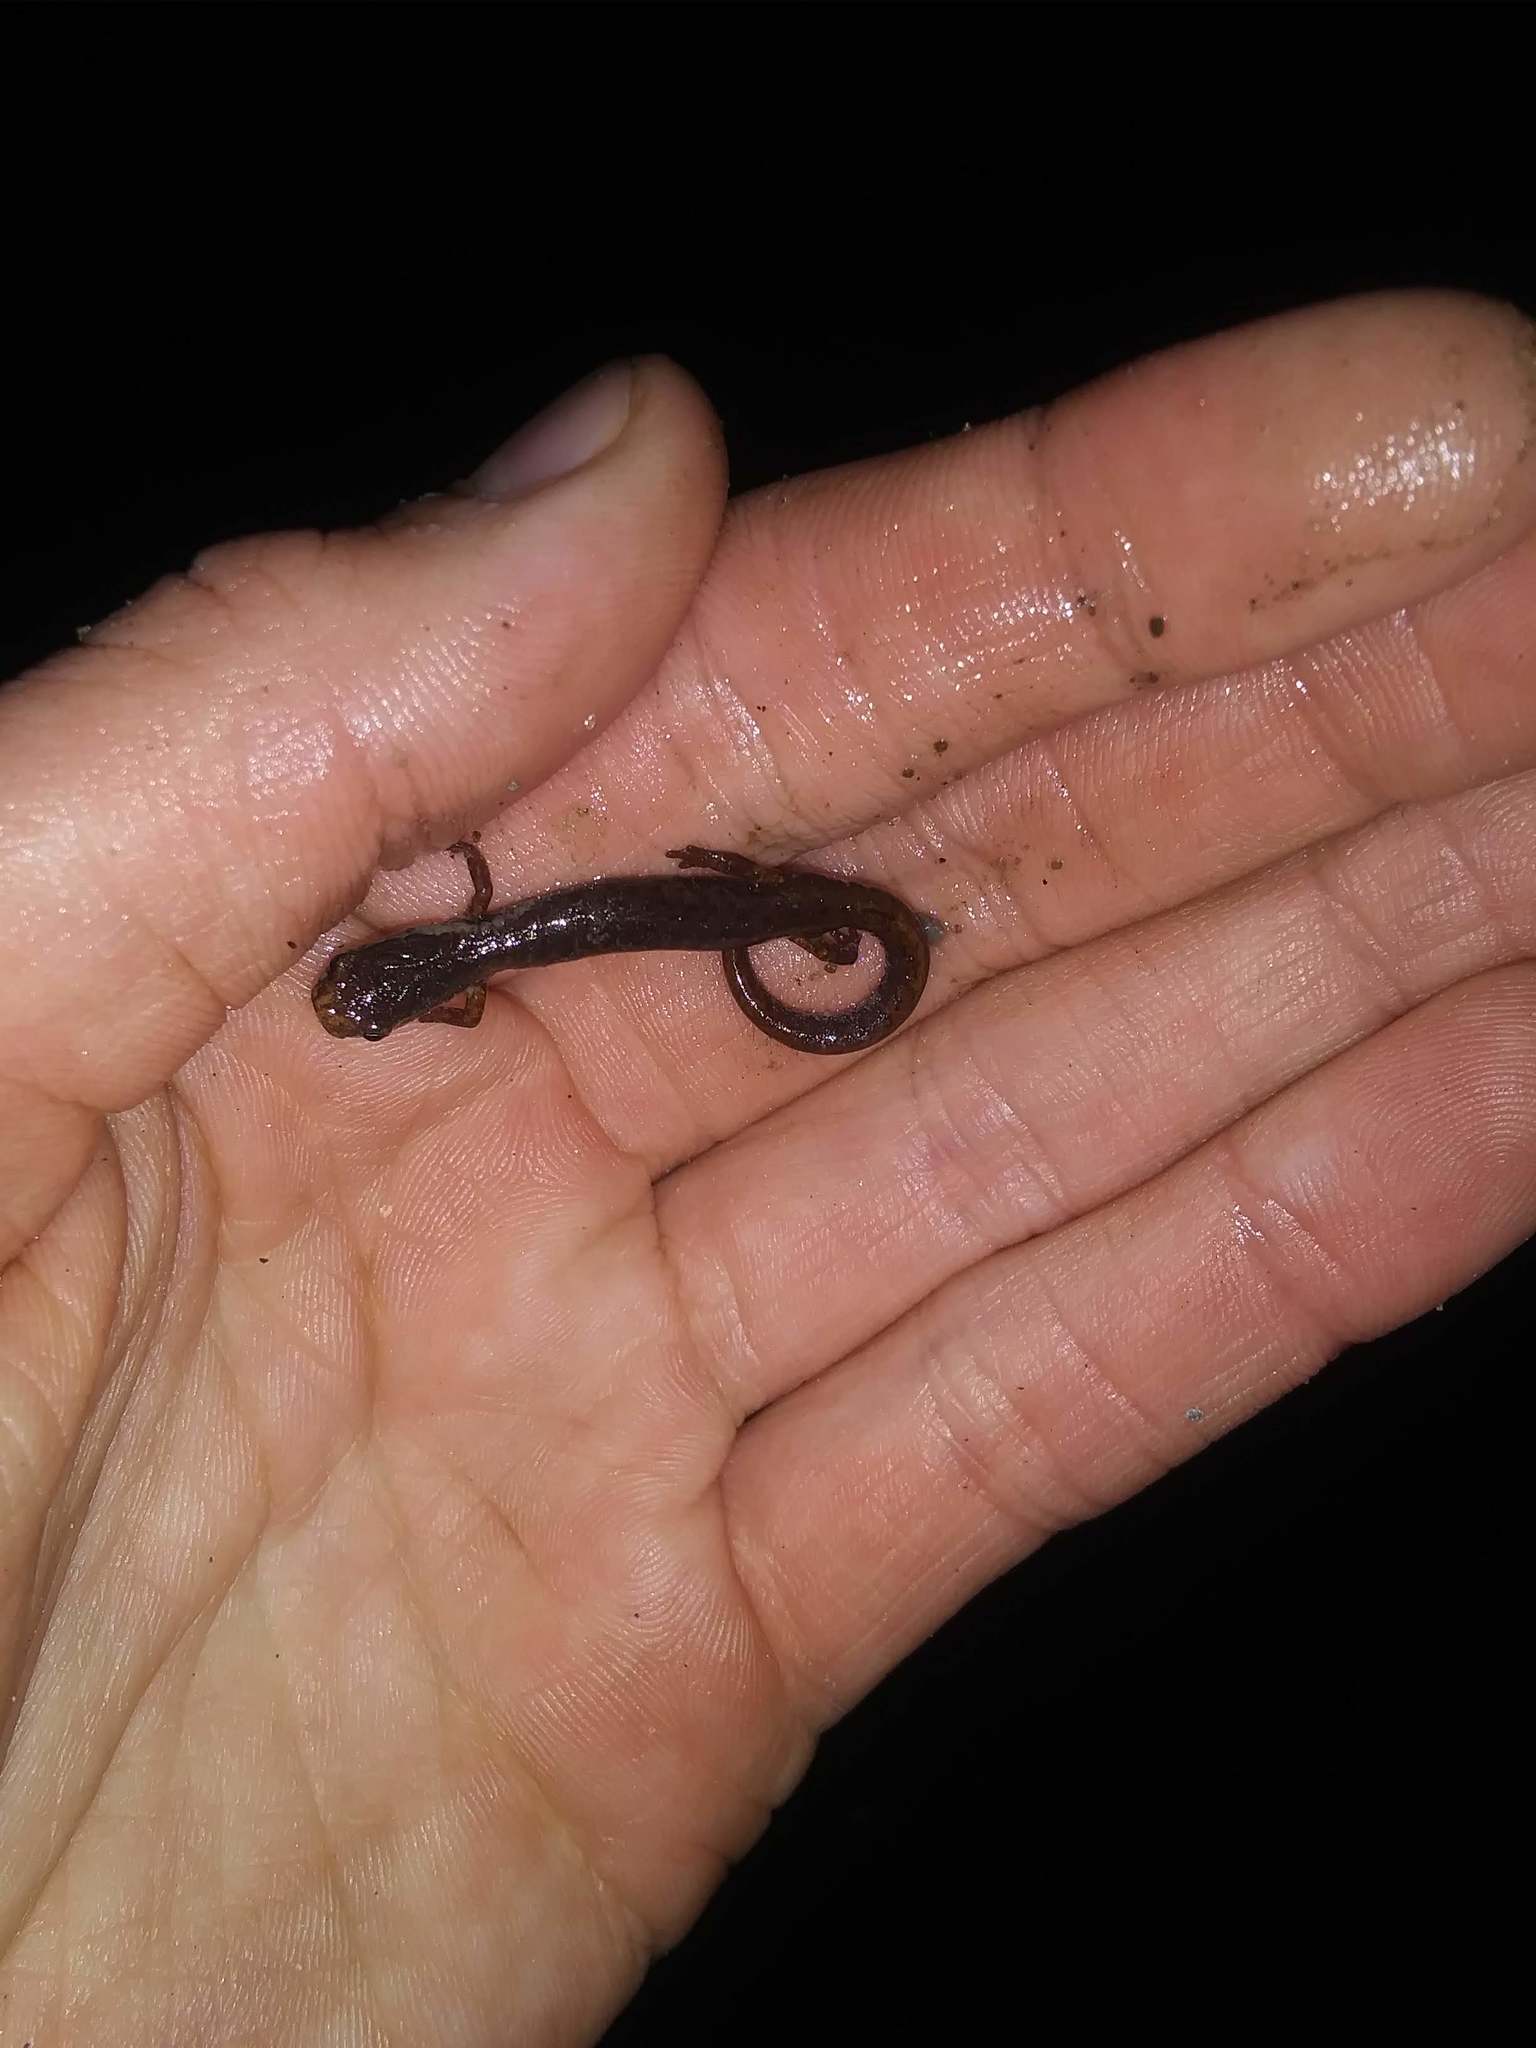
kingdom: Animalia
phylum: Chordata
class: Amphibia
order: Caudata
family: Plethodontidae
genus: Hemidactylium
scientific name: Hemidactylium scutatum
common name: Four-toed salamander
